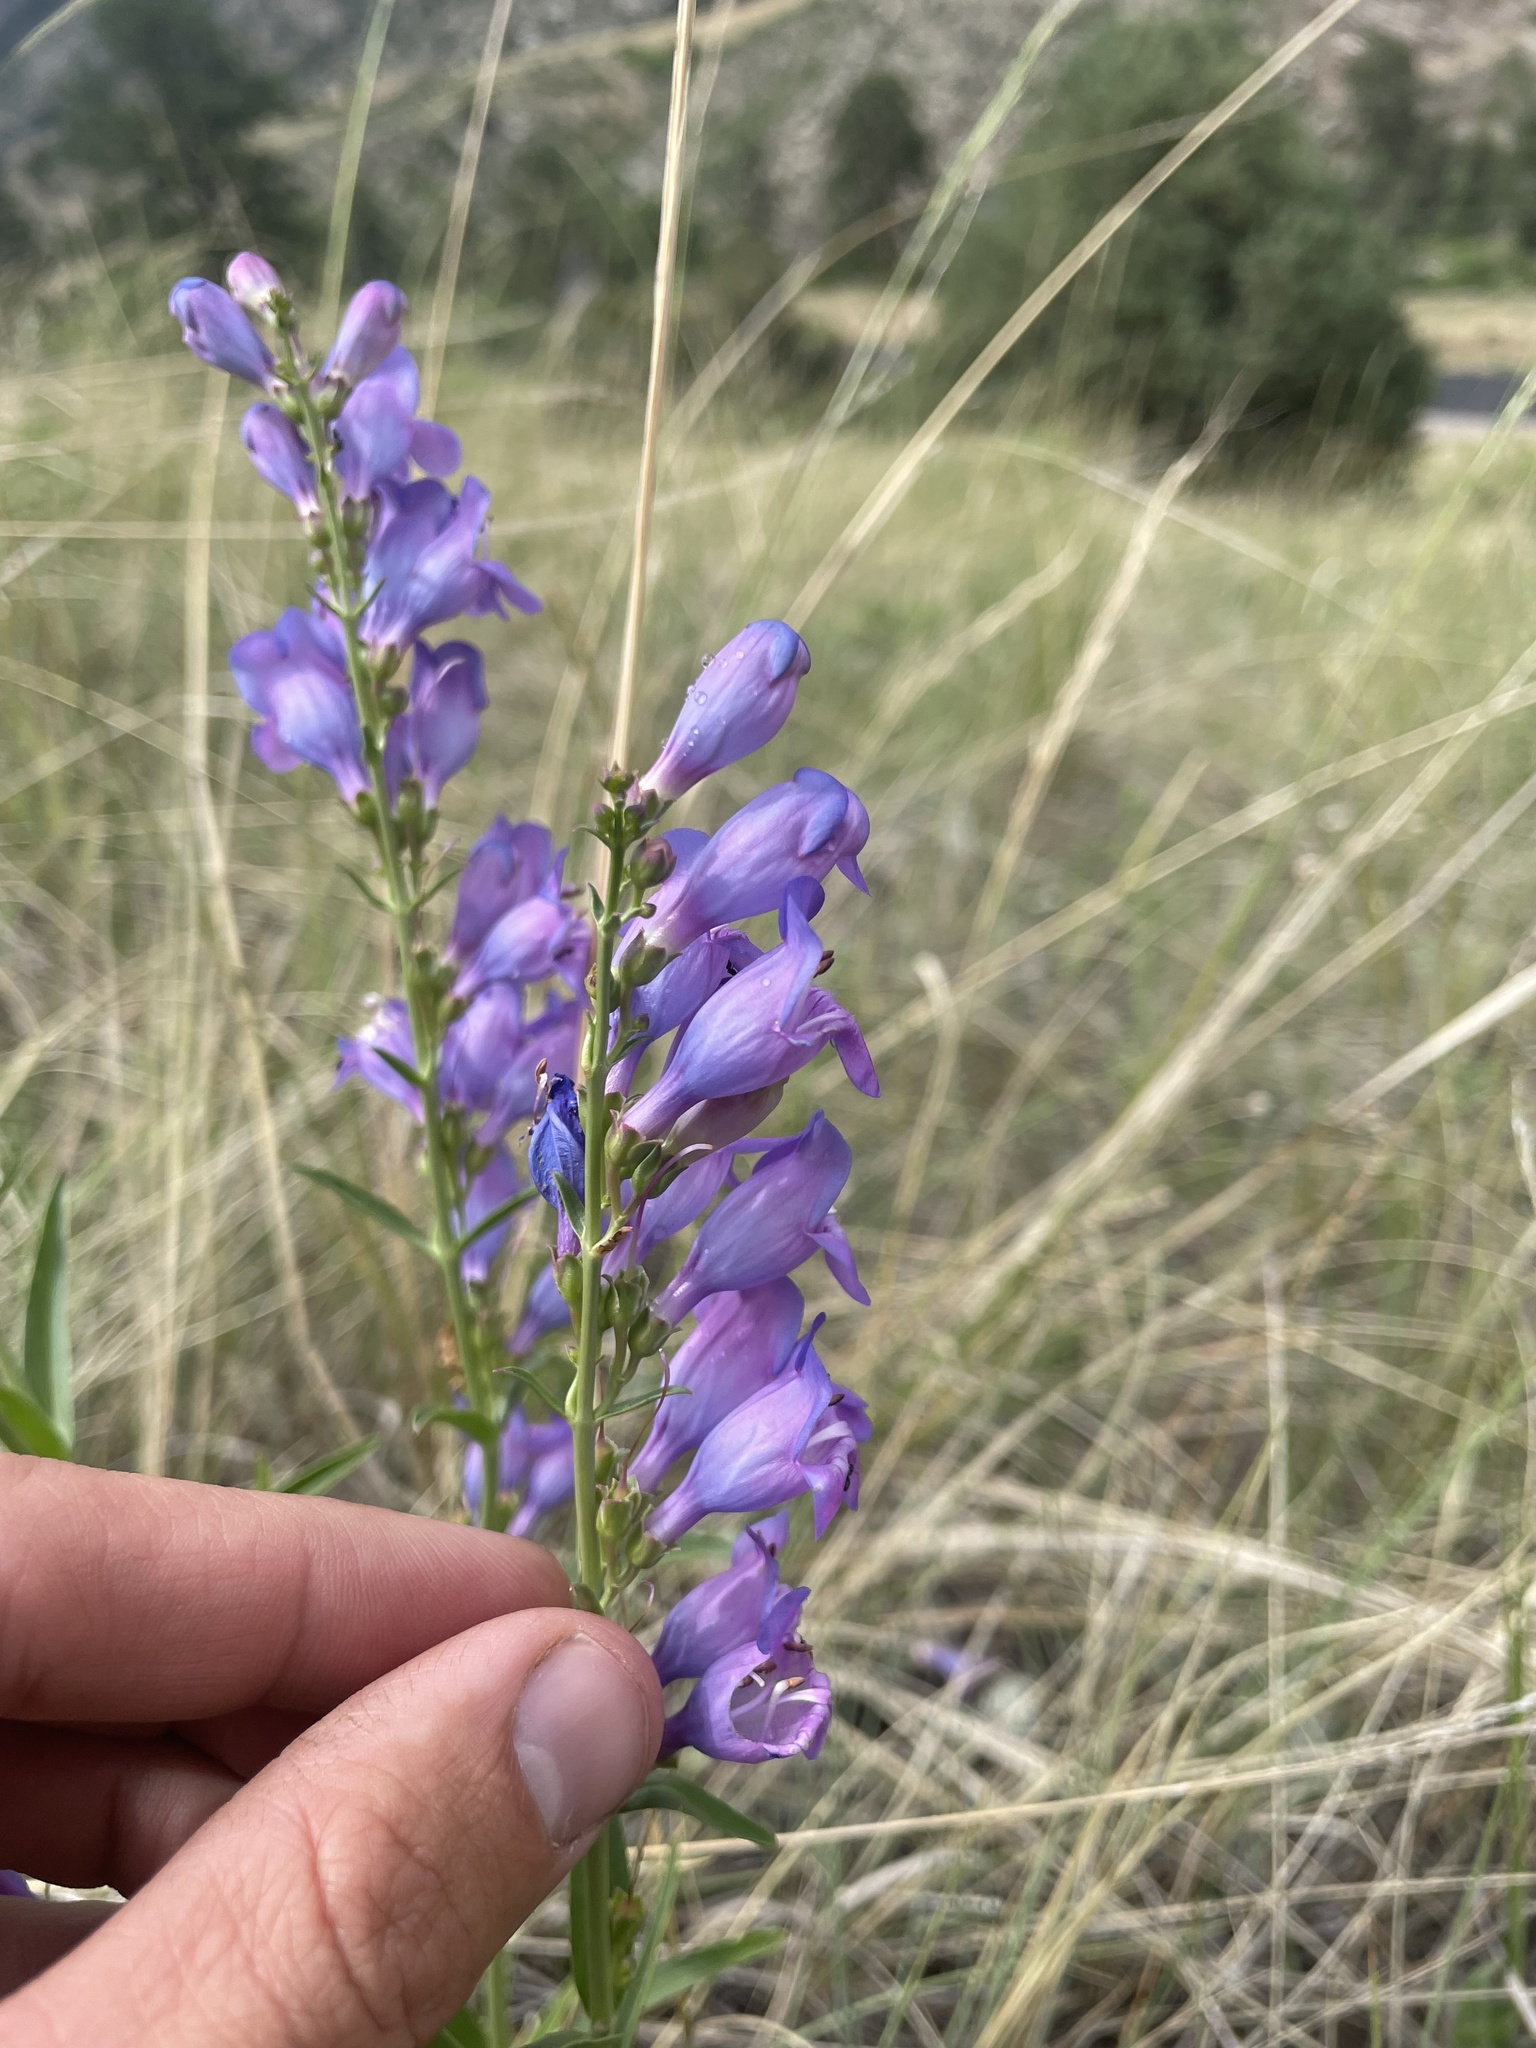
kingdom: Plantae
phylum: Tracheophyta
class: Magnoliopsida
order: Lamiales
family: Plantaginaceae
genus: Penstemon
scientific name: Penstemon virgatus
